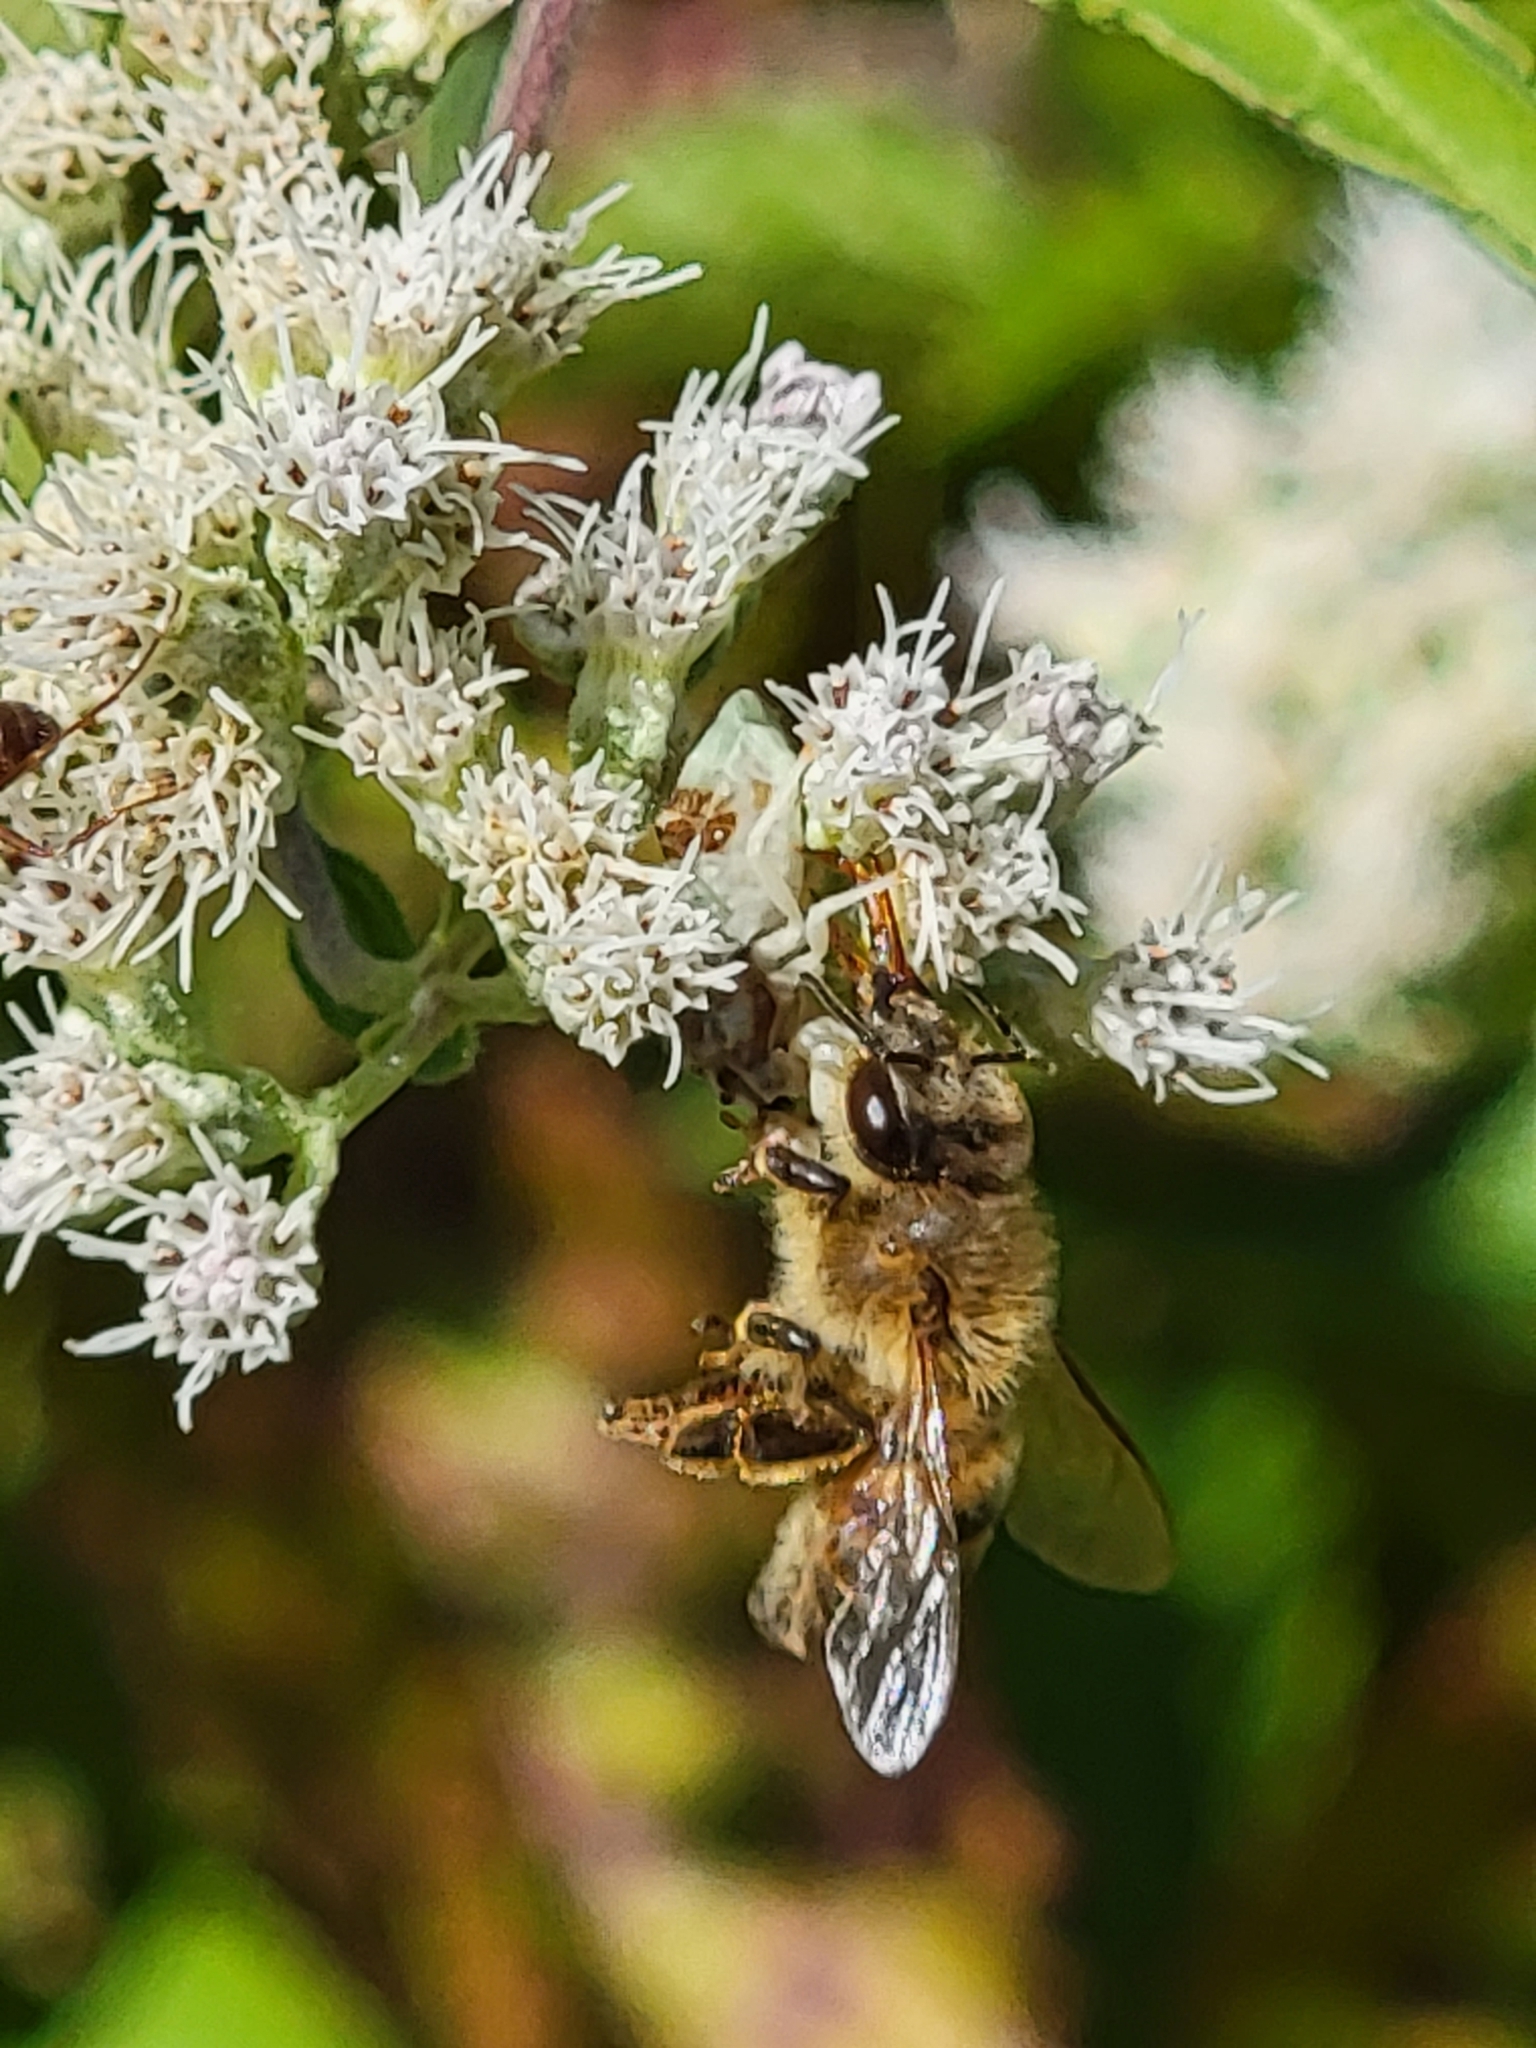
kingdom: Animalia
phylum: Arthropoda
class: Insecta
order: Hymenoptera
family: Apidae
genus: Apis
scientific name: Apis mellifera
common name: Honey bee
